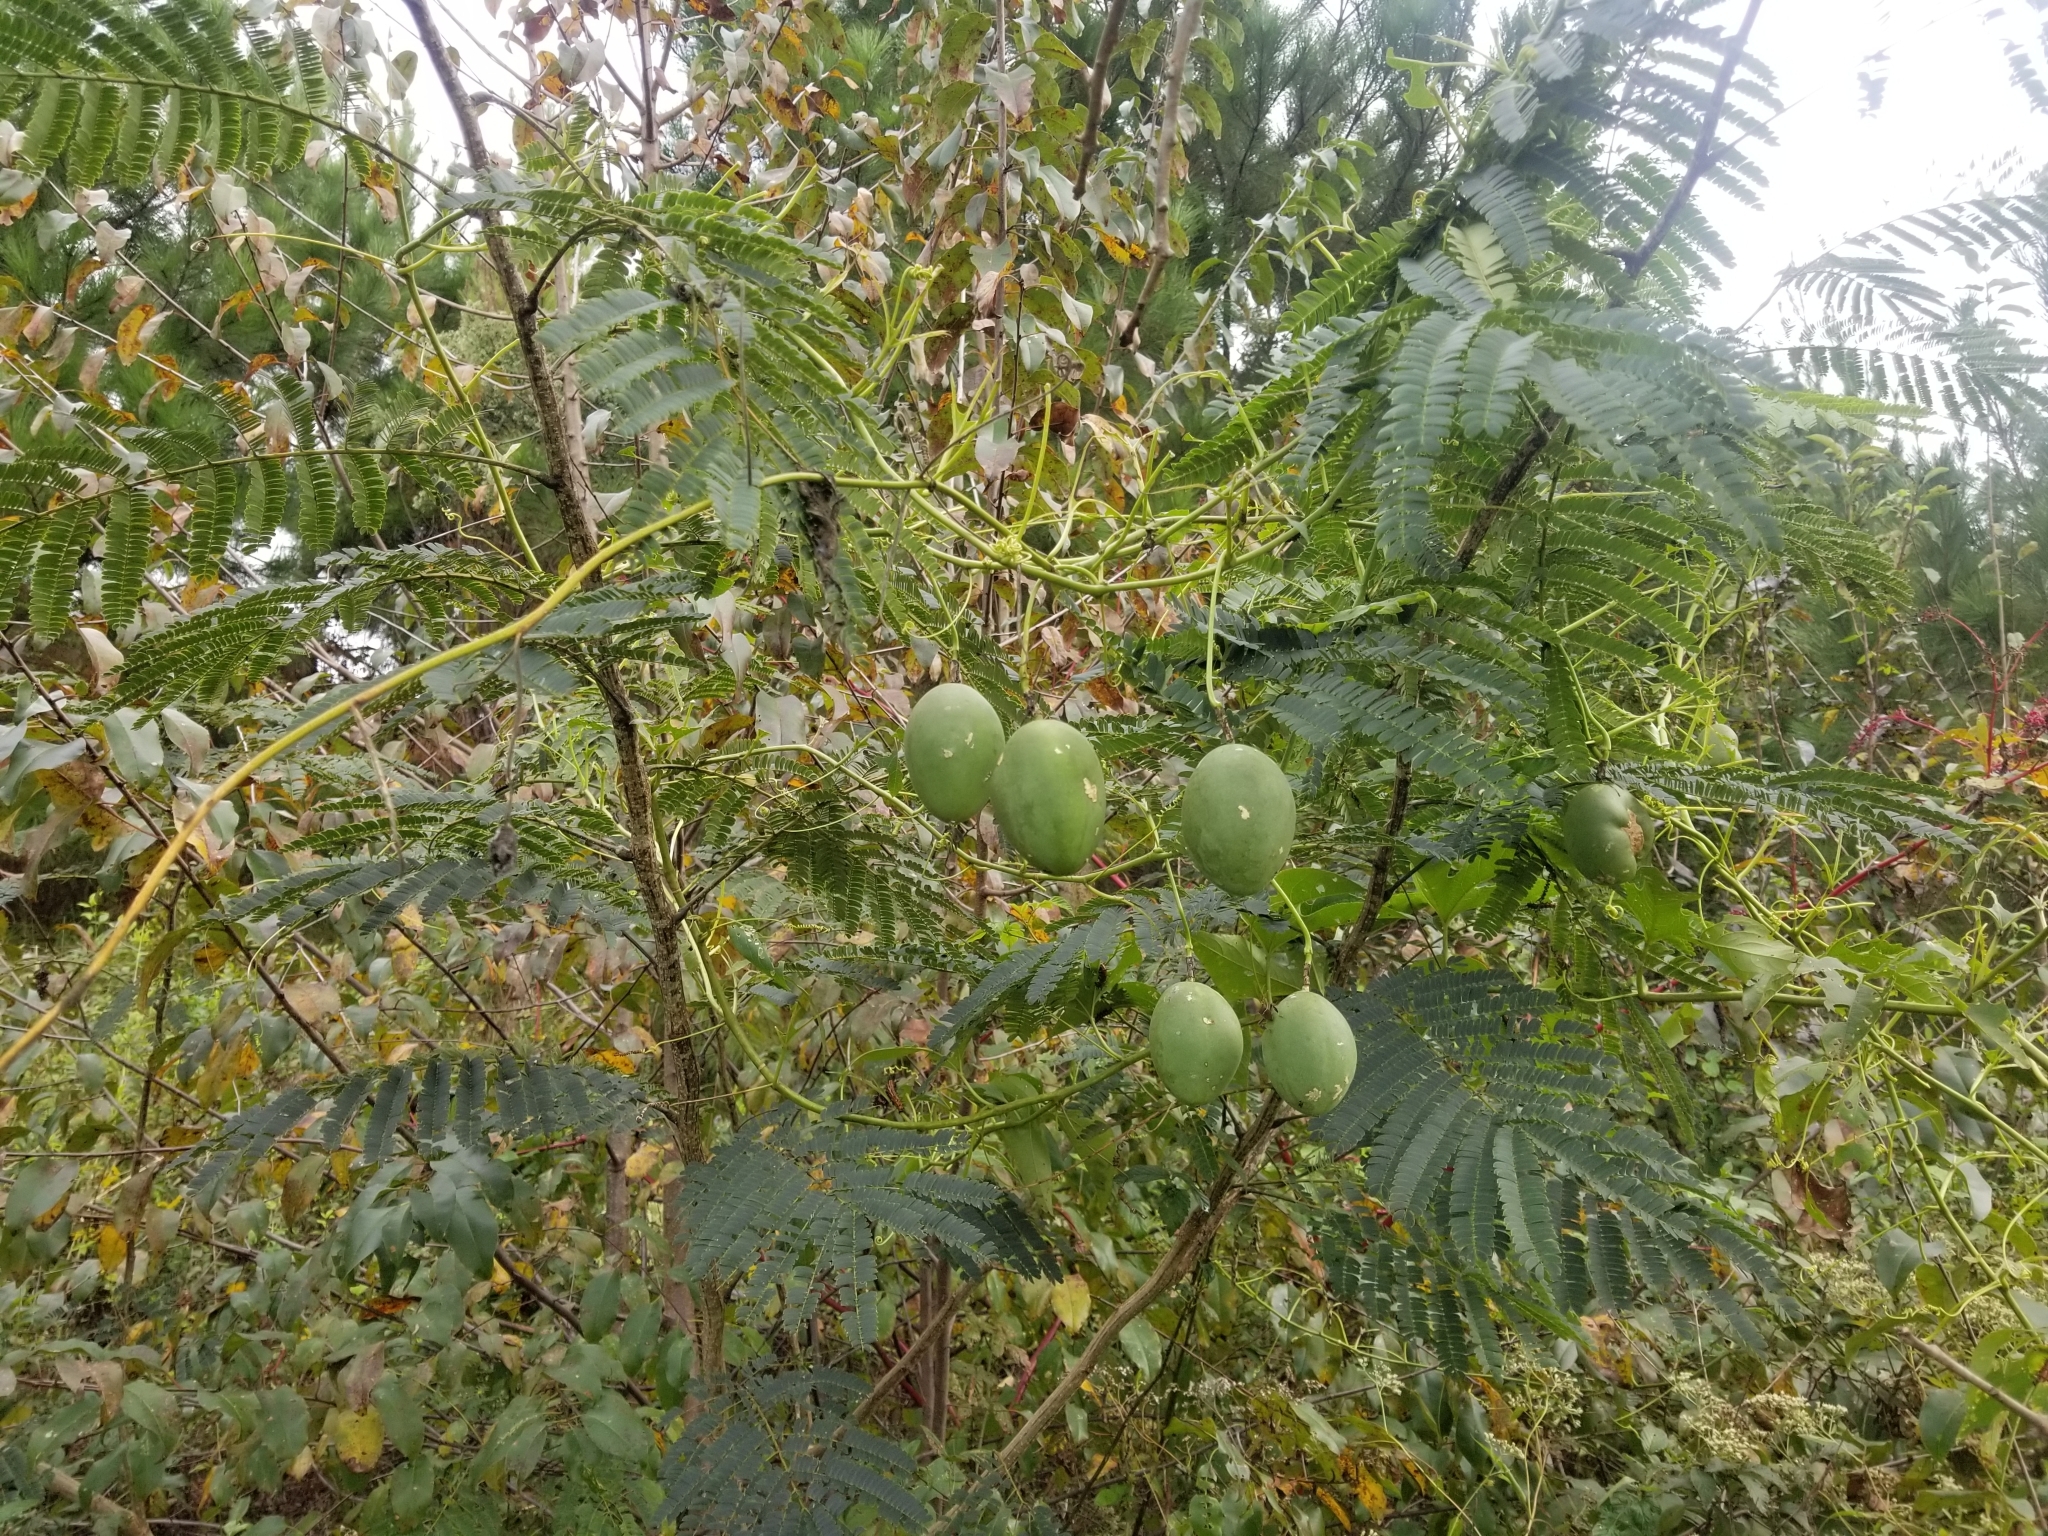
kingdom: Plantae
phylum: Tracheophyta
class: Magnoliopsida
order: Malpighiales
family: Passifloraceae
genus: Passiflora
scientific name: Passiflora incarnata
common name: Apricot-vine
